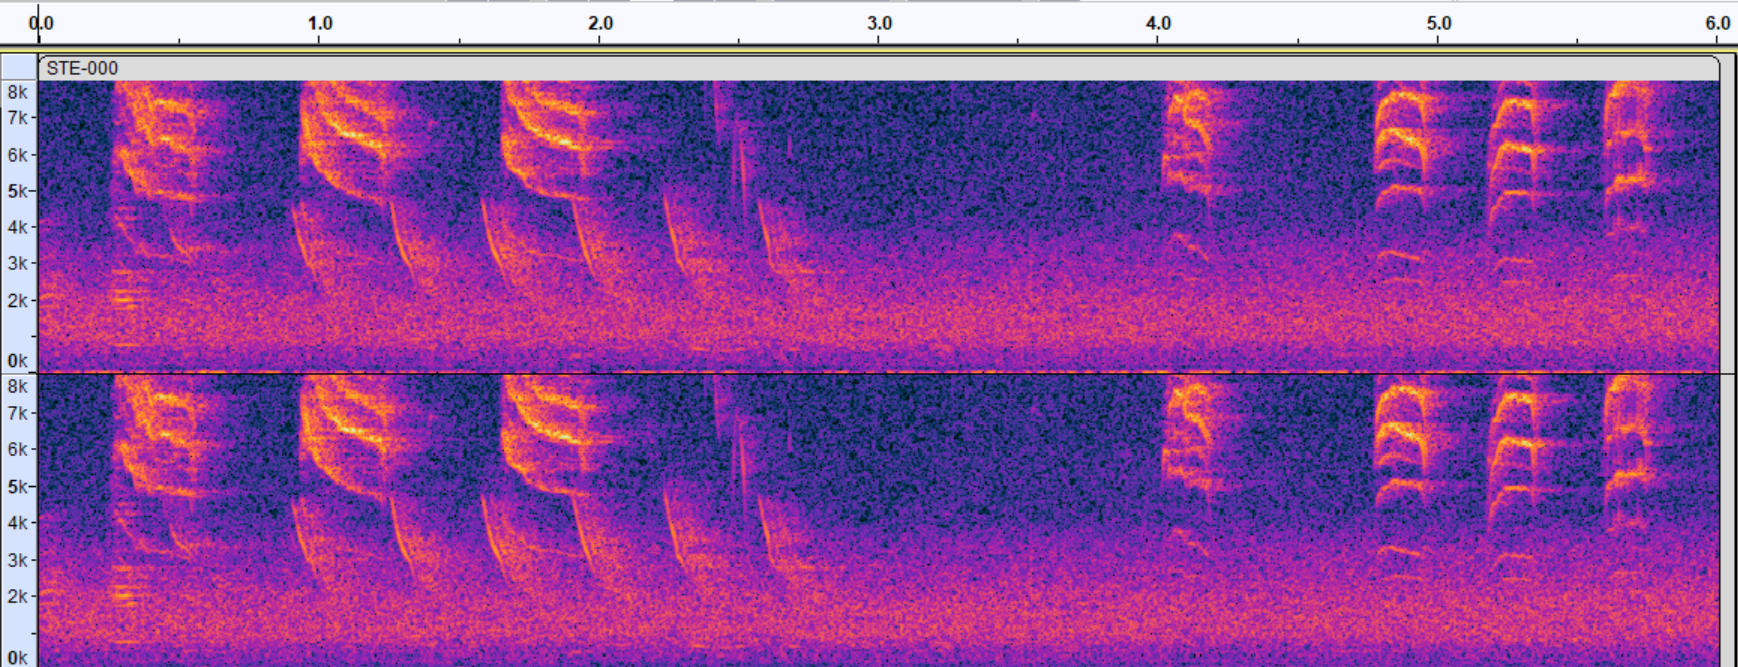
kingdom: Animalia
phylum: Chordata
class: Aves
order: Passeriformes
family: Polioptilidae
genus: Polioptila
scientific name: Polioptila caerulea
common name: Blue-gray gnatcatcher
